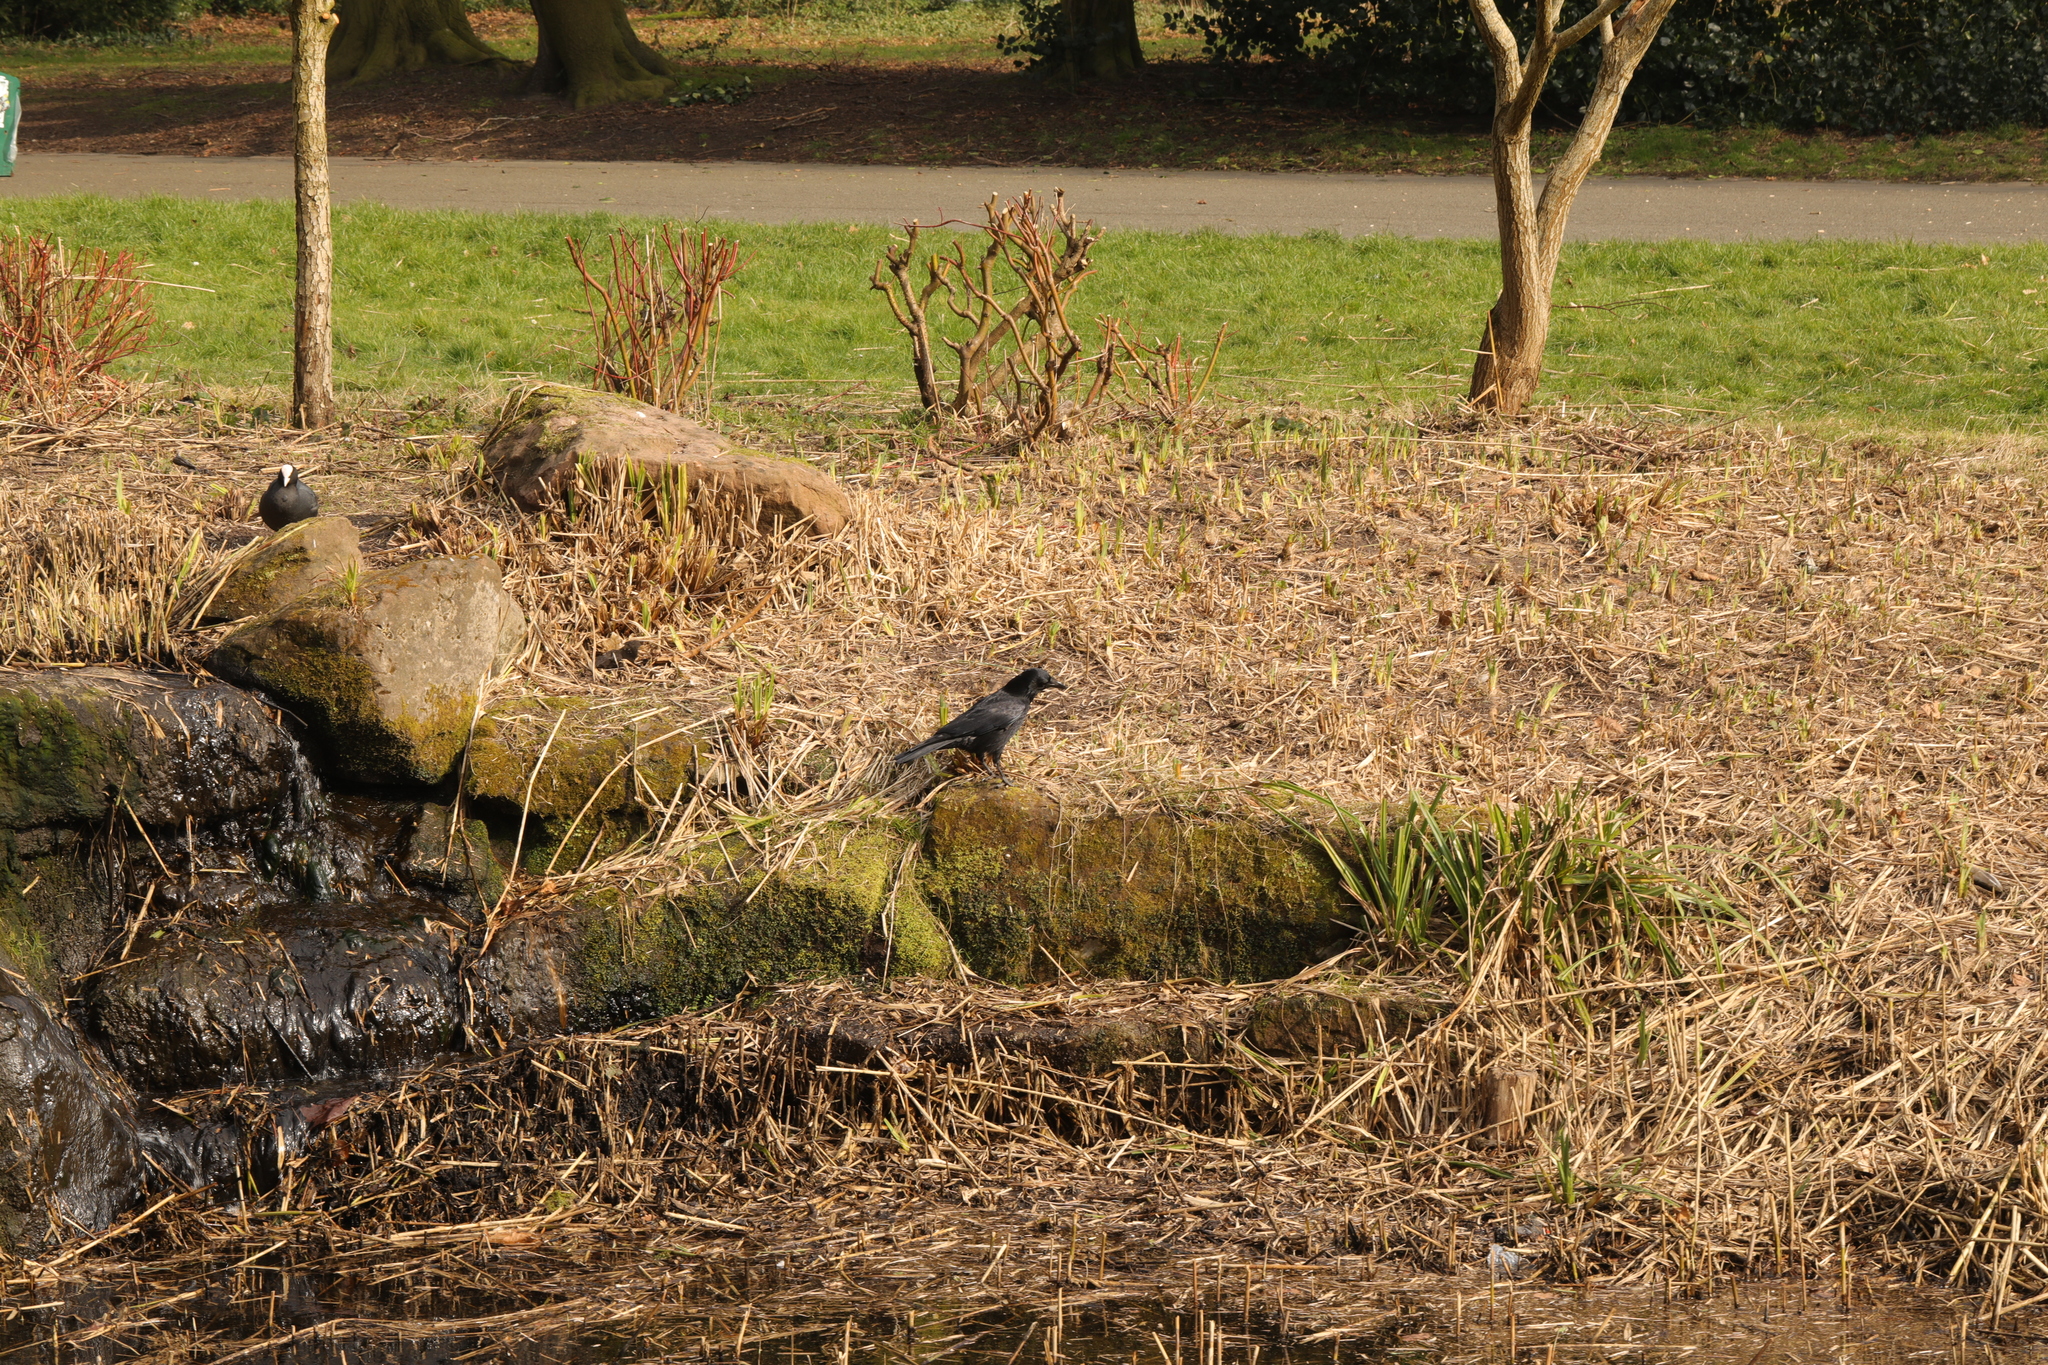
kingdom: Animalia
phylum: Chordata
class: Aves
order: Passeriformes
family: Corvidae
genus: Corvus
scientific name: Corvus corone
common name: Carrion crow
